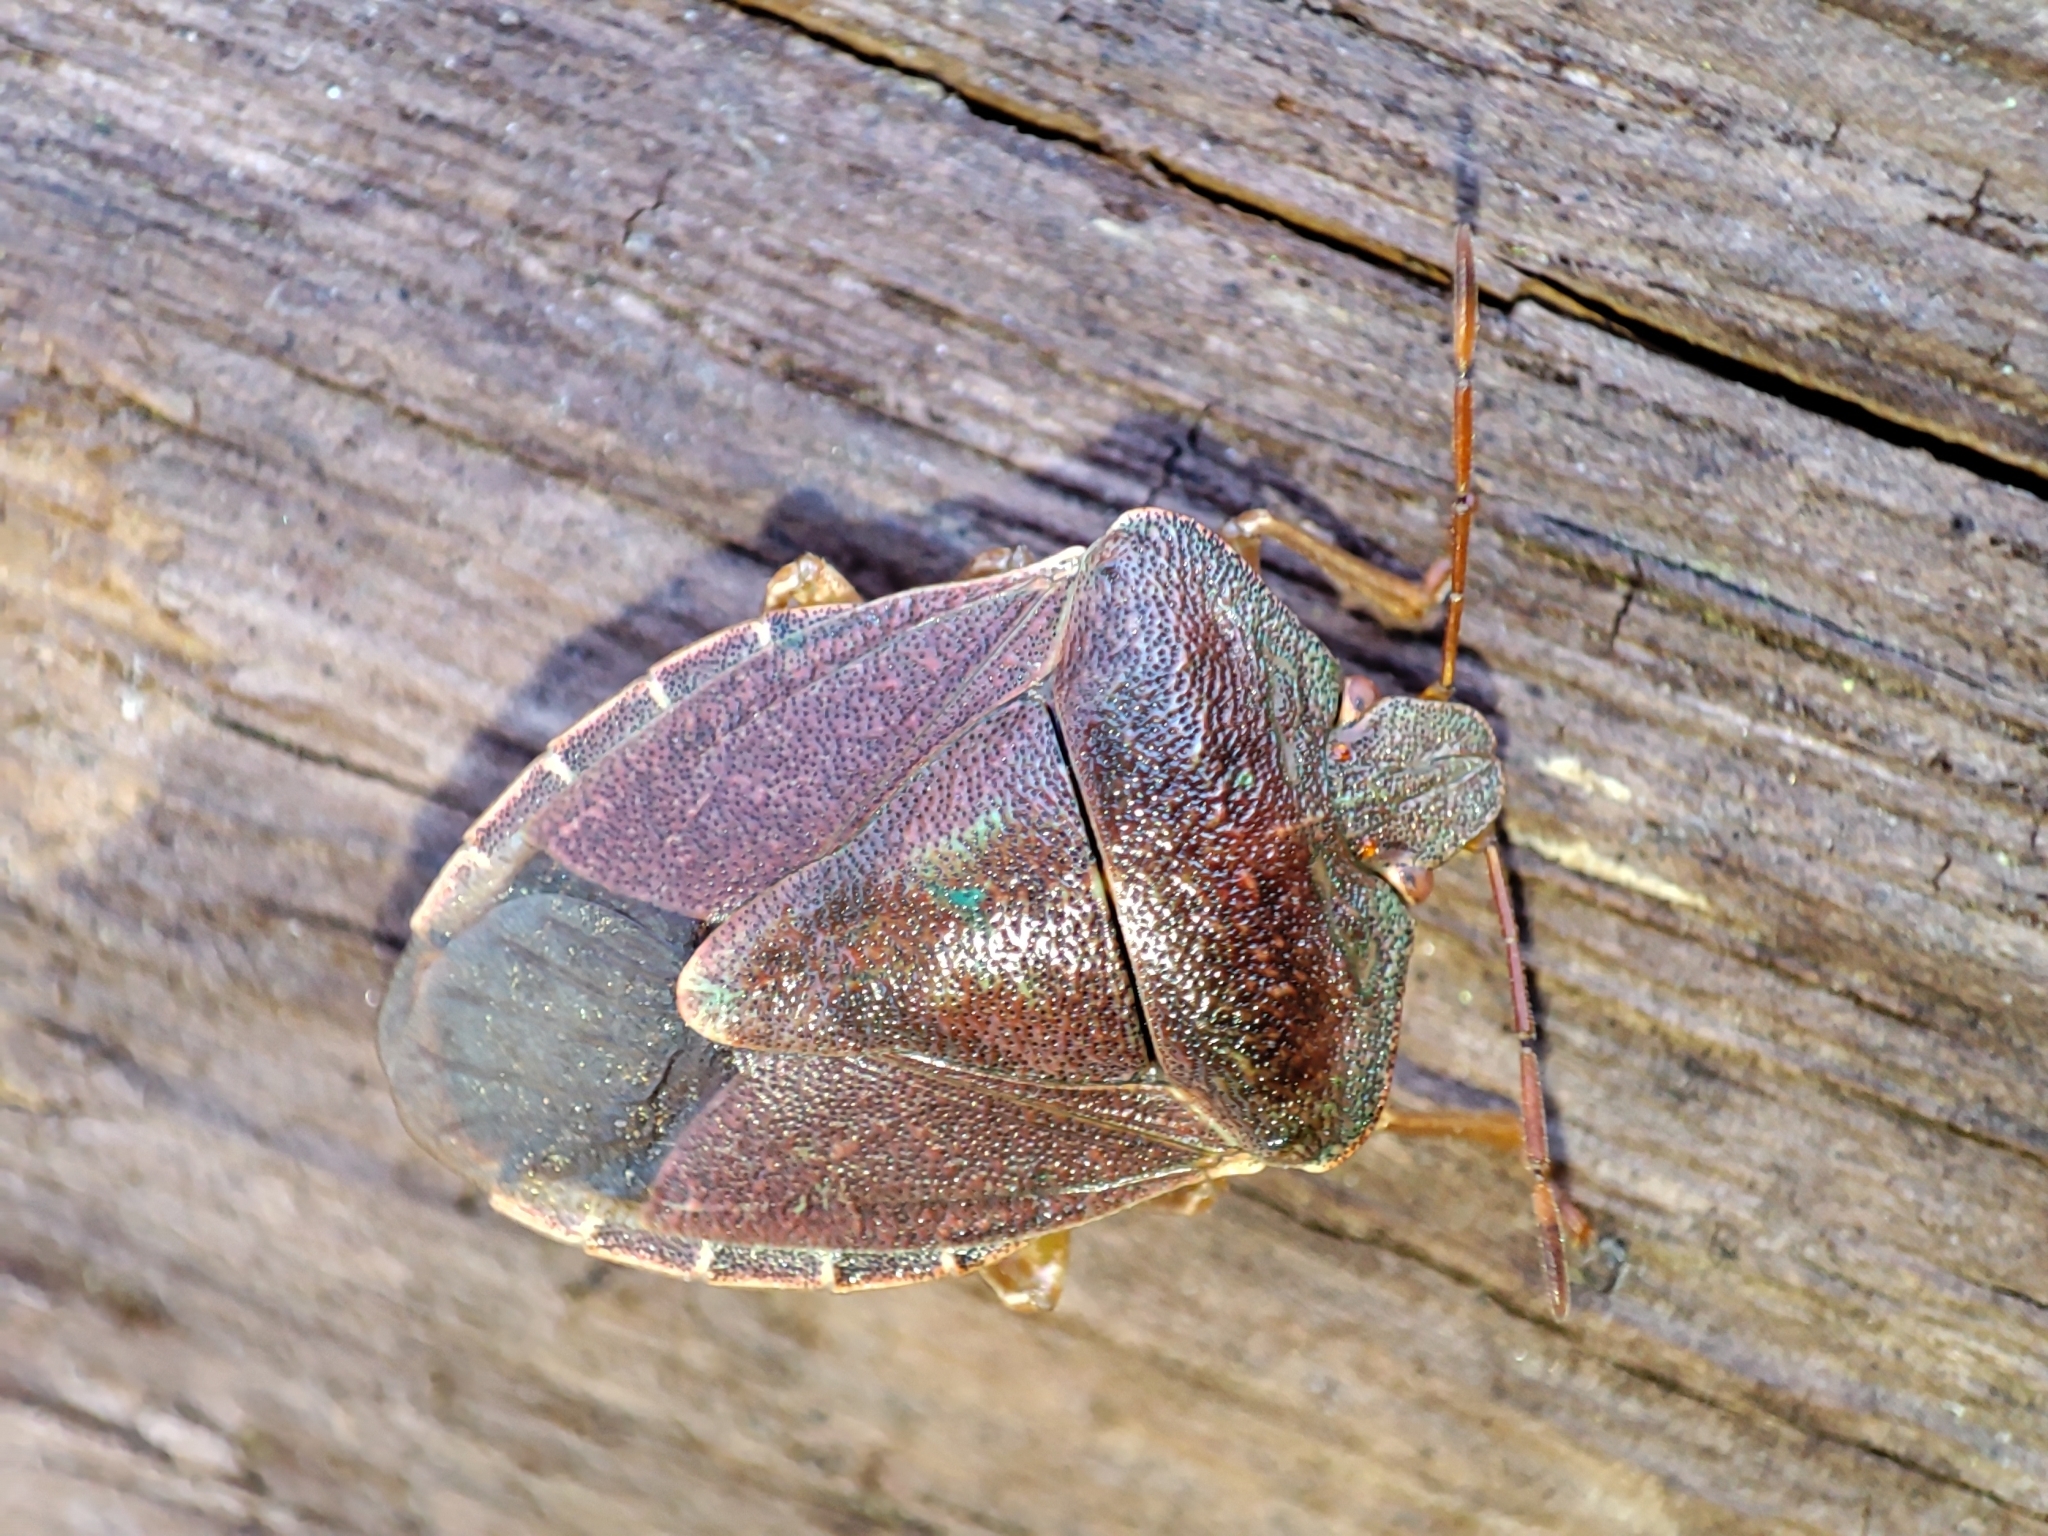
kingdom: Animalia
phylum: Arthropoda
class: Insecta
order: Hemiptera
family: Pentatomidae
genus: Palomena
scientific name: Palomena prasina
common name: Green shieldbug
